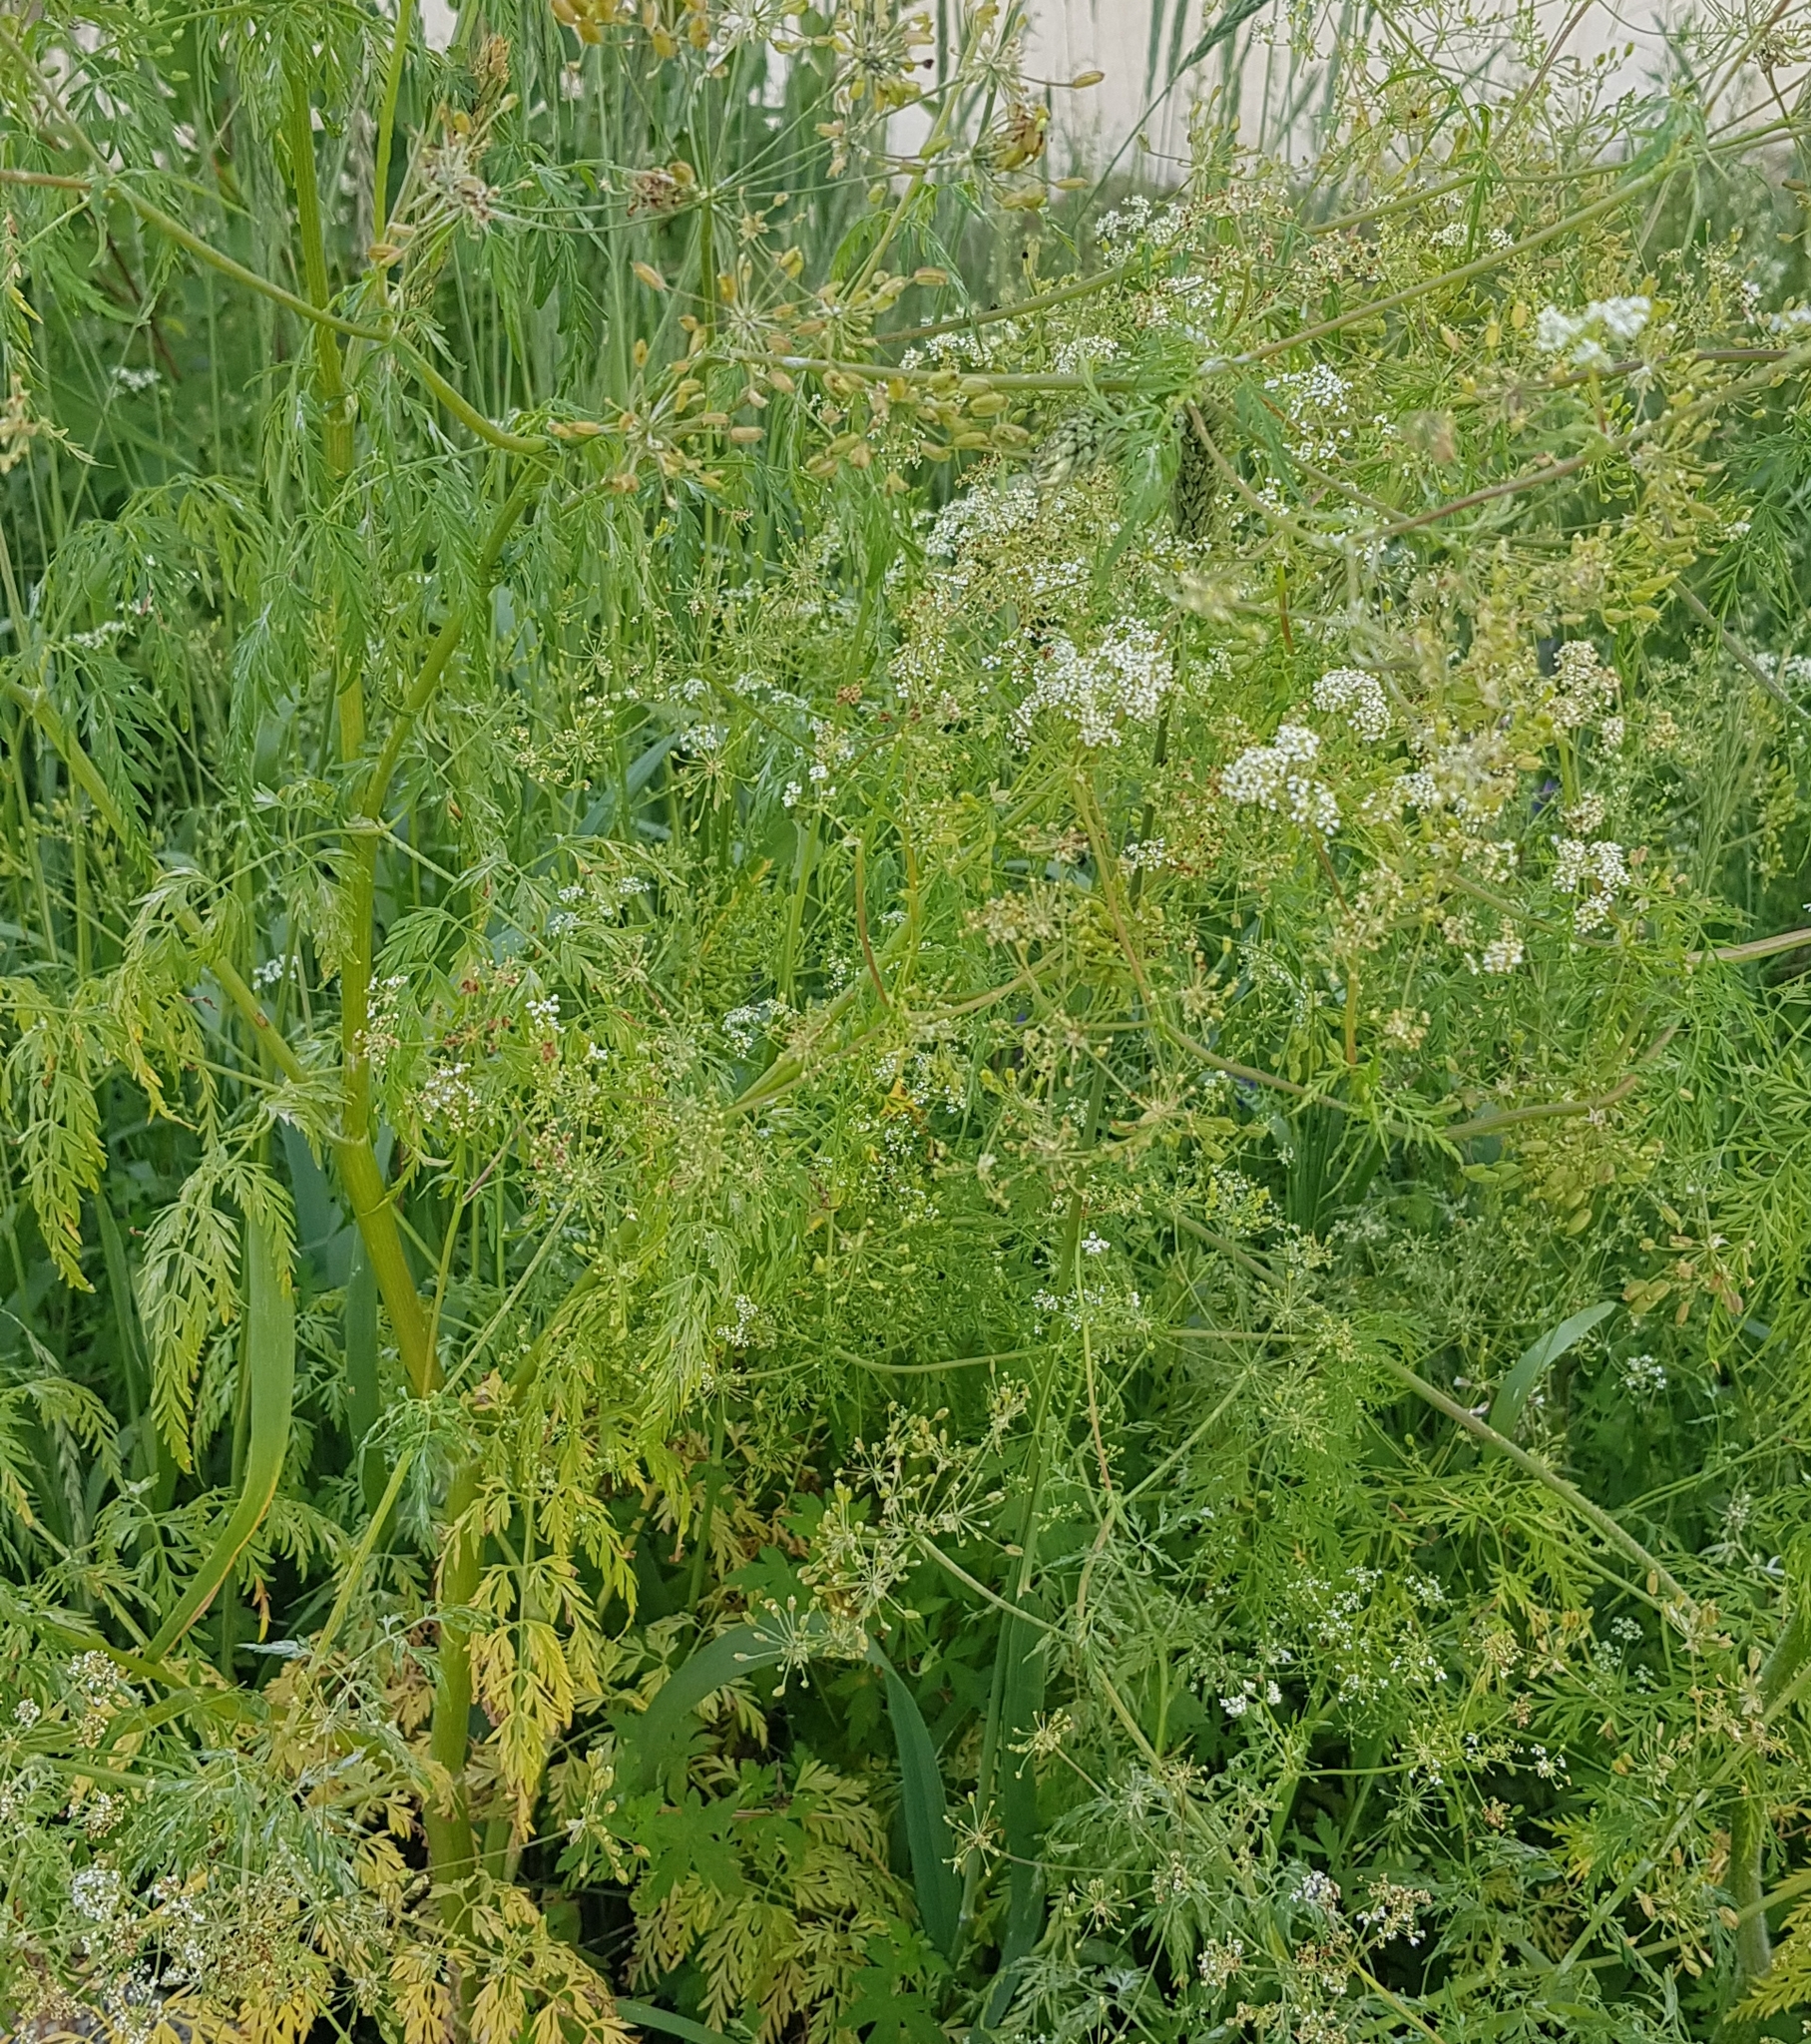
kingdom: Plantae
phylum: Tracheophyta
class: Magnoliopsida
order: Apiales
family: Apiaceae
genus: Sphallerocarpus
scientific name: Sphallerocarpus gracilis
